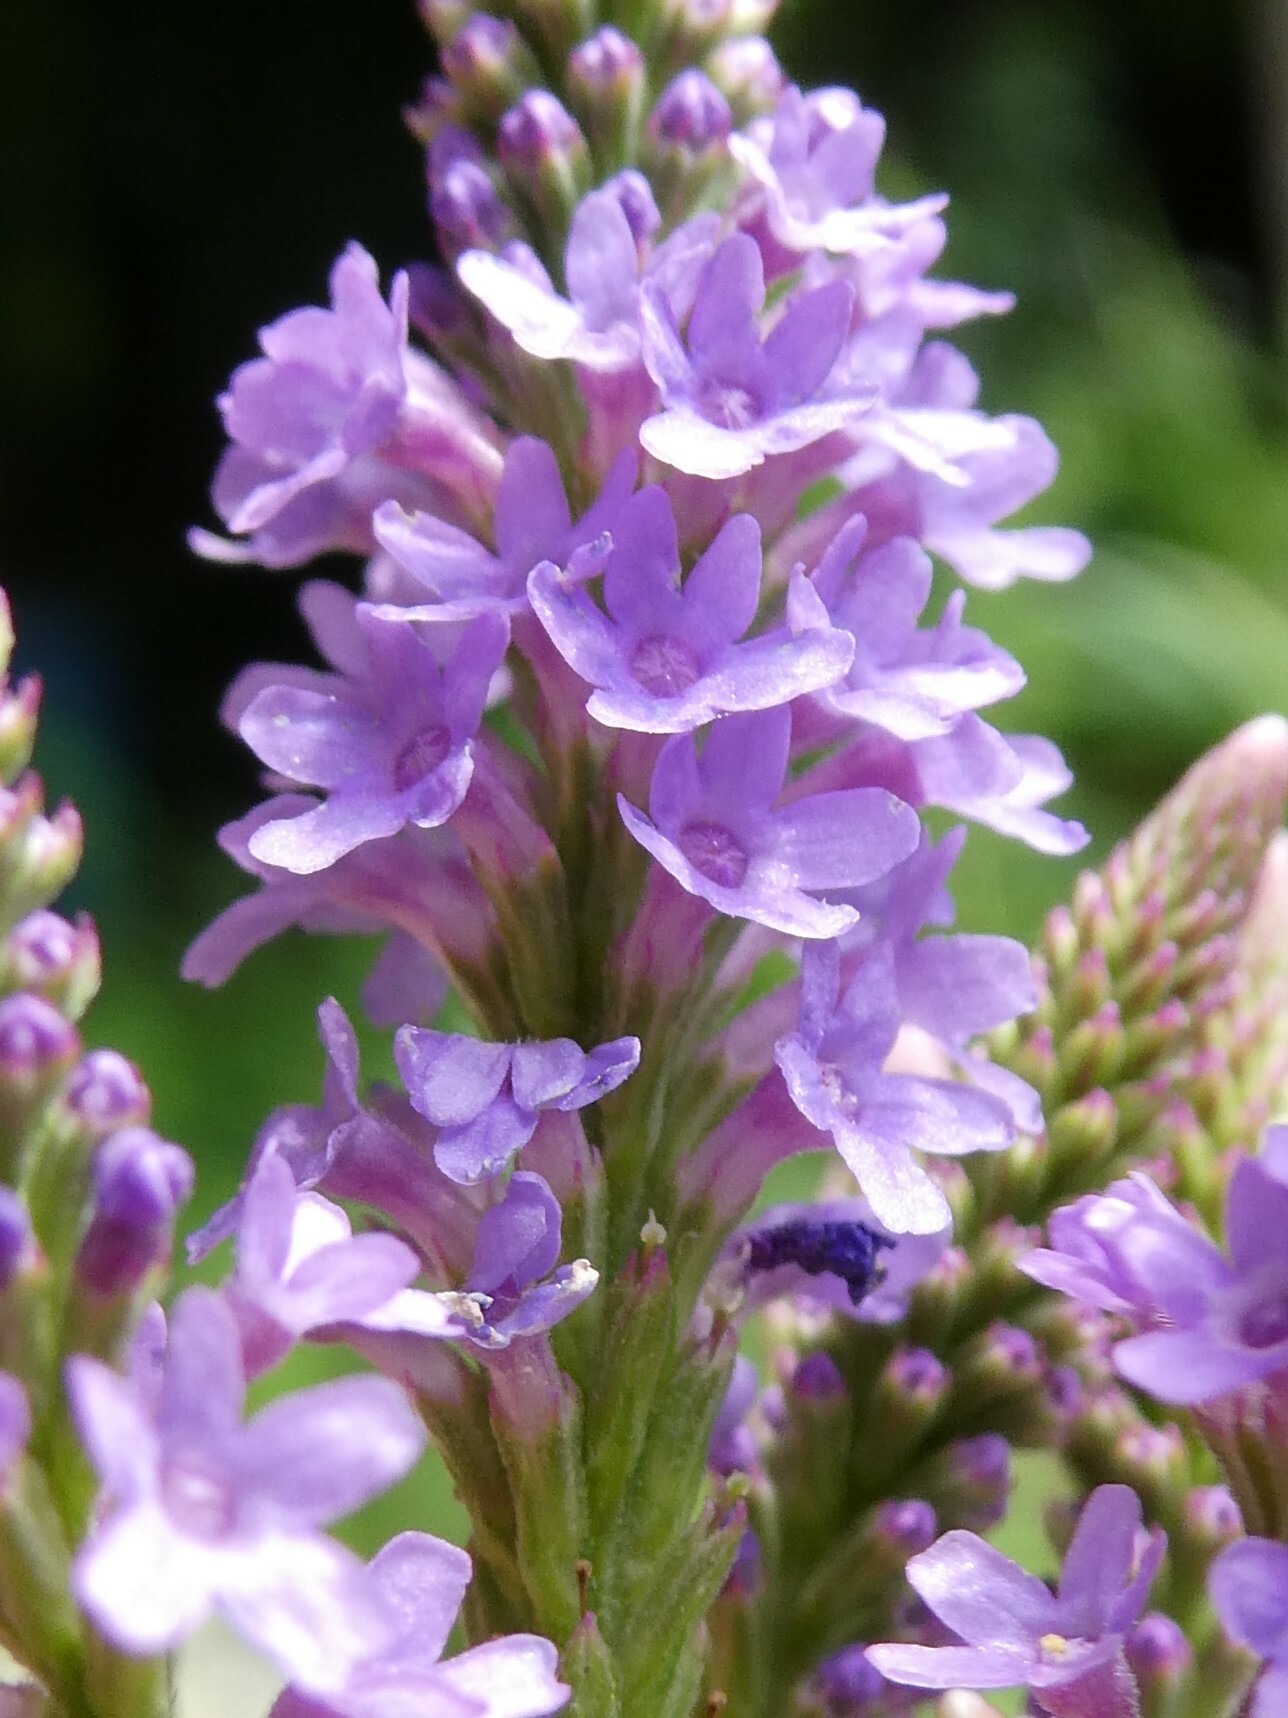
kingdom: Plantae
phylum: Tracheophyta
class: Magnoliopsida
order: Lamiales
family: Verbenaceae
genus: Verbena
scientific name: Verbena hastata
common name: American blue vervain
